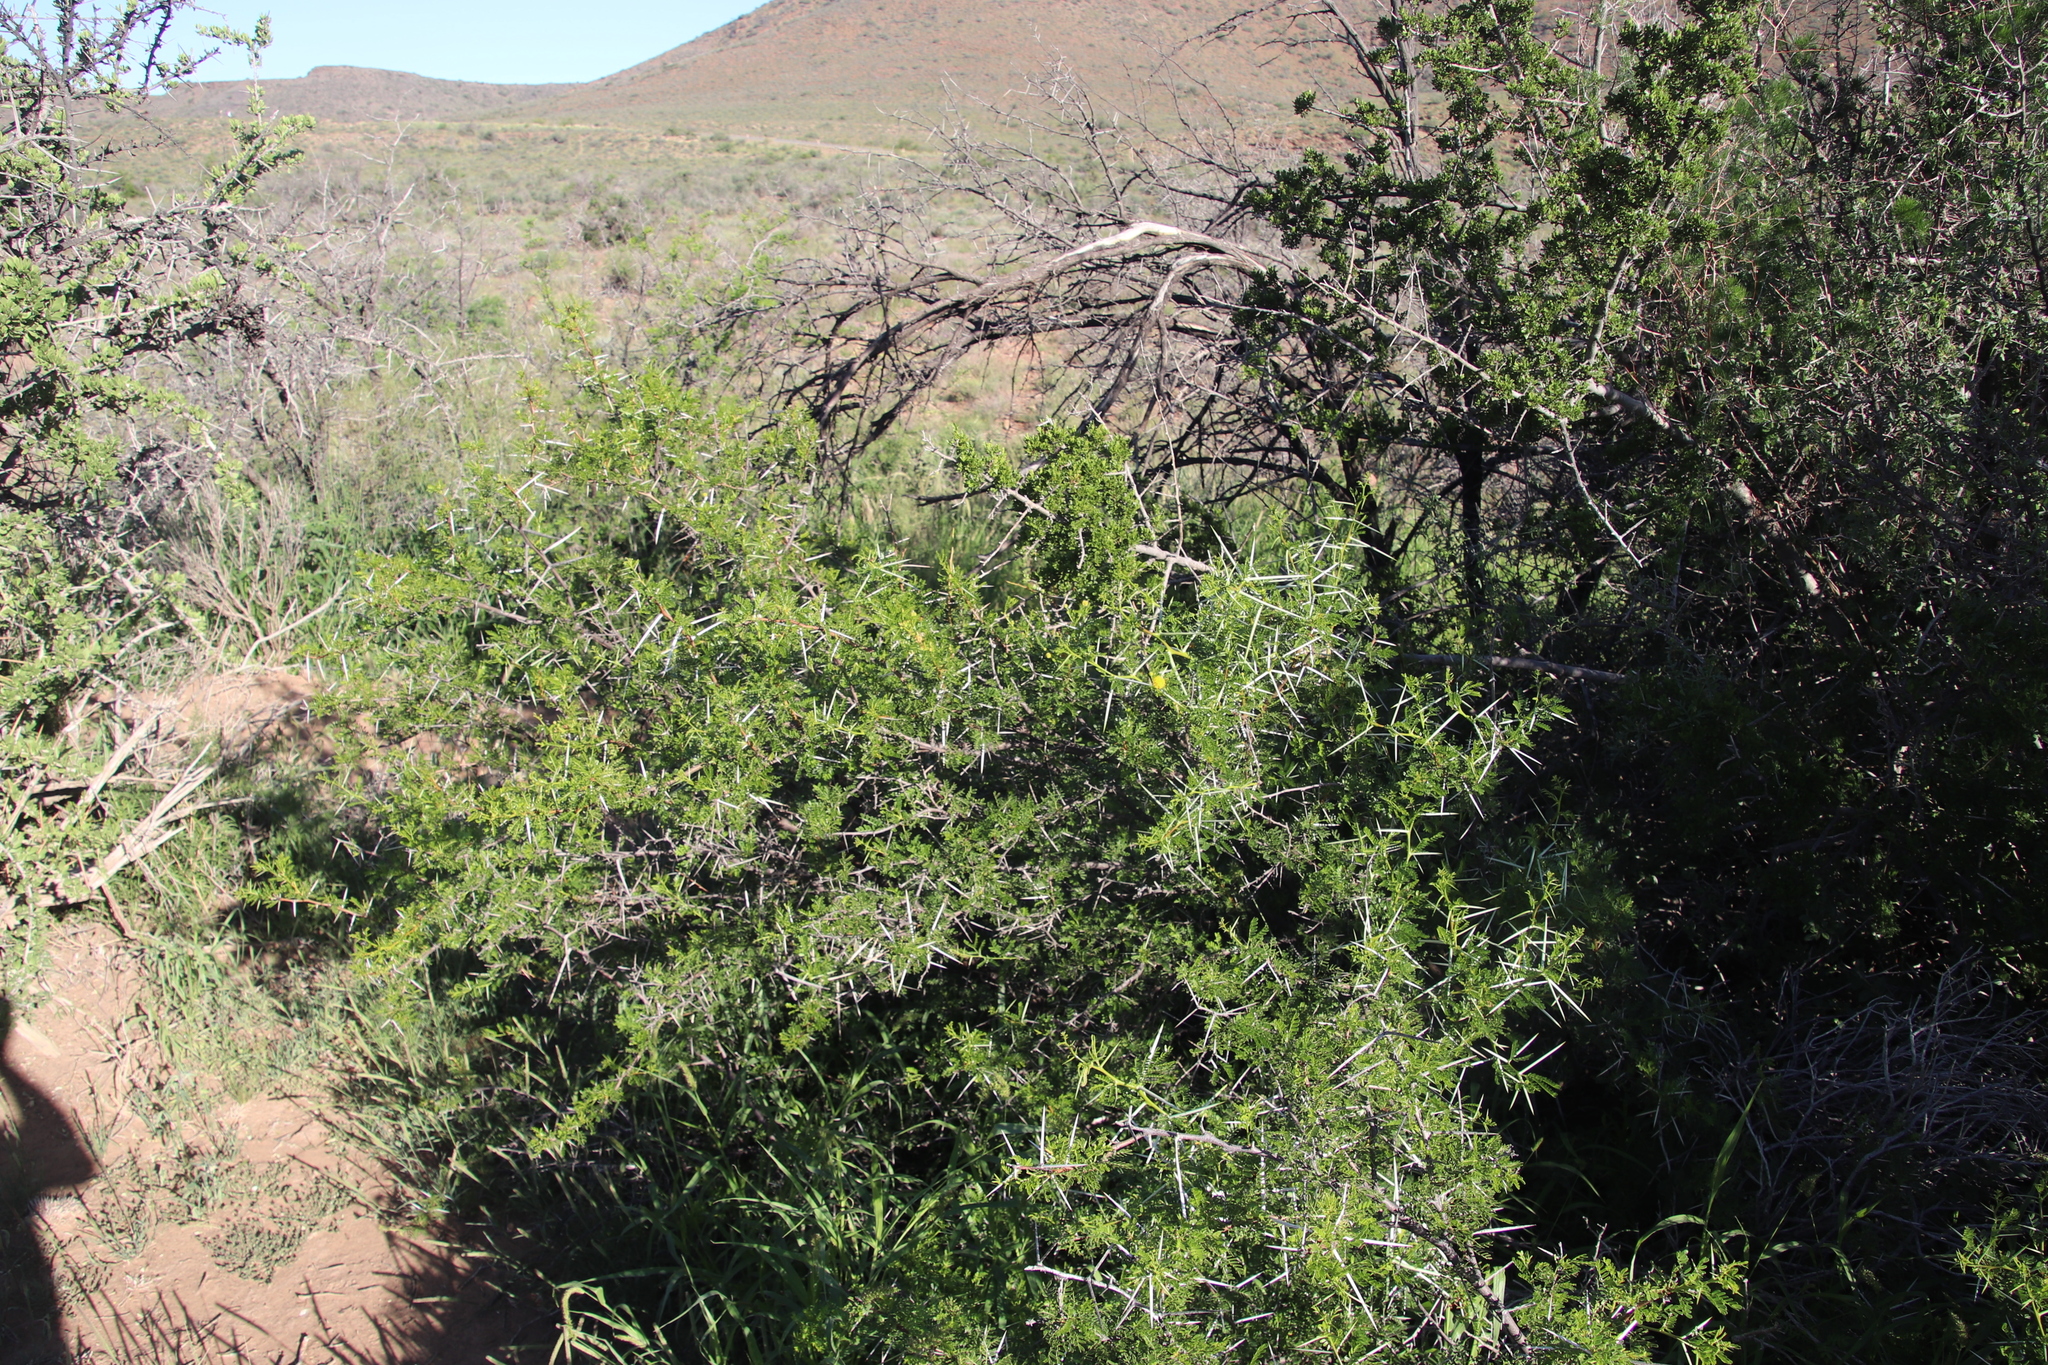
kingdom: Plantae
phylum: Tracheophyta
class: Magnoliopsida
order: Fabales
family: Fabaceae
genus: Vachellia
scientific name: Vachellia karroo
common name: Sweet thorn
